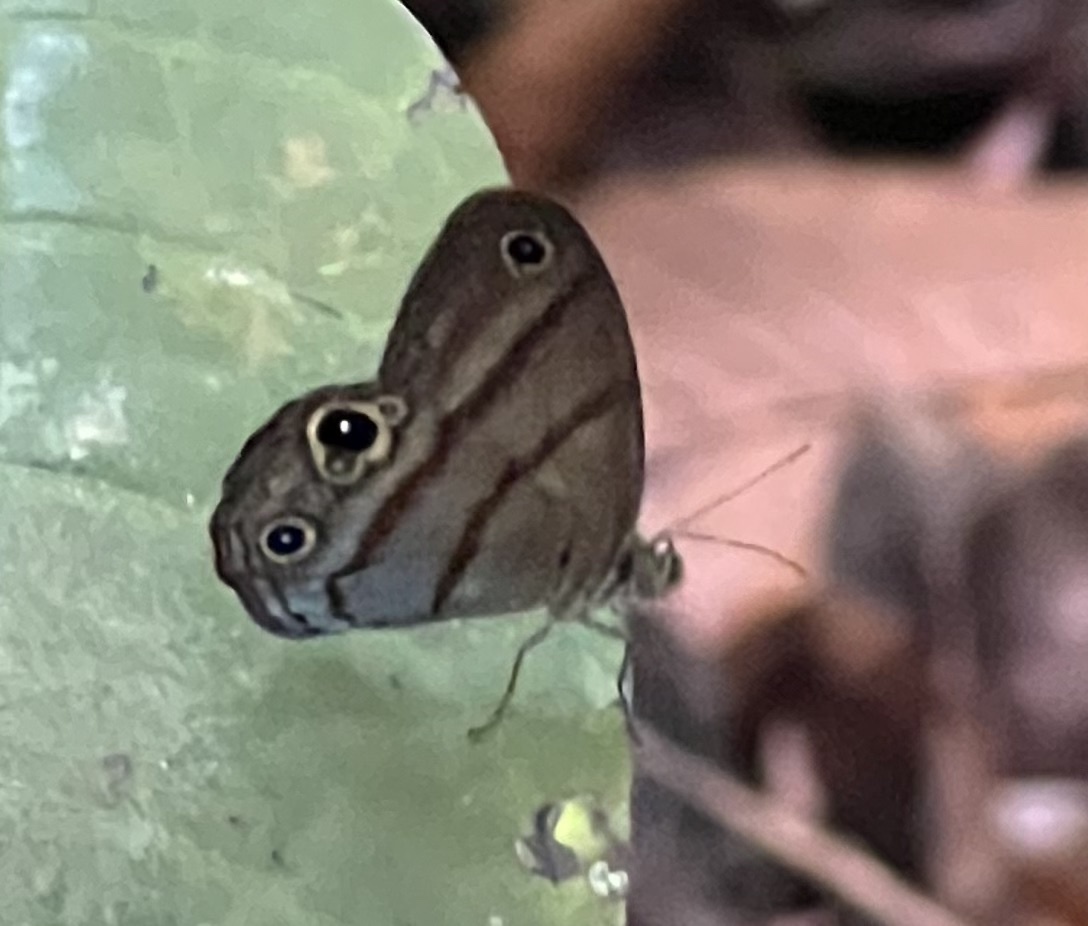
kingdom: Animalia
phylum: Arthropoda
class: Insecta
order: Lepidoptera
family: Nymphalidae
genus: Amiga
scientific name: Amiga arnaca
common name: Blue-topped satyr
